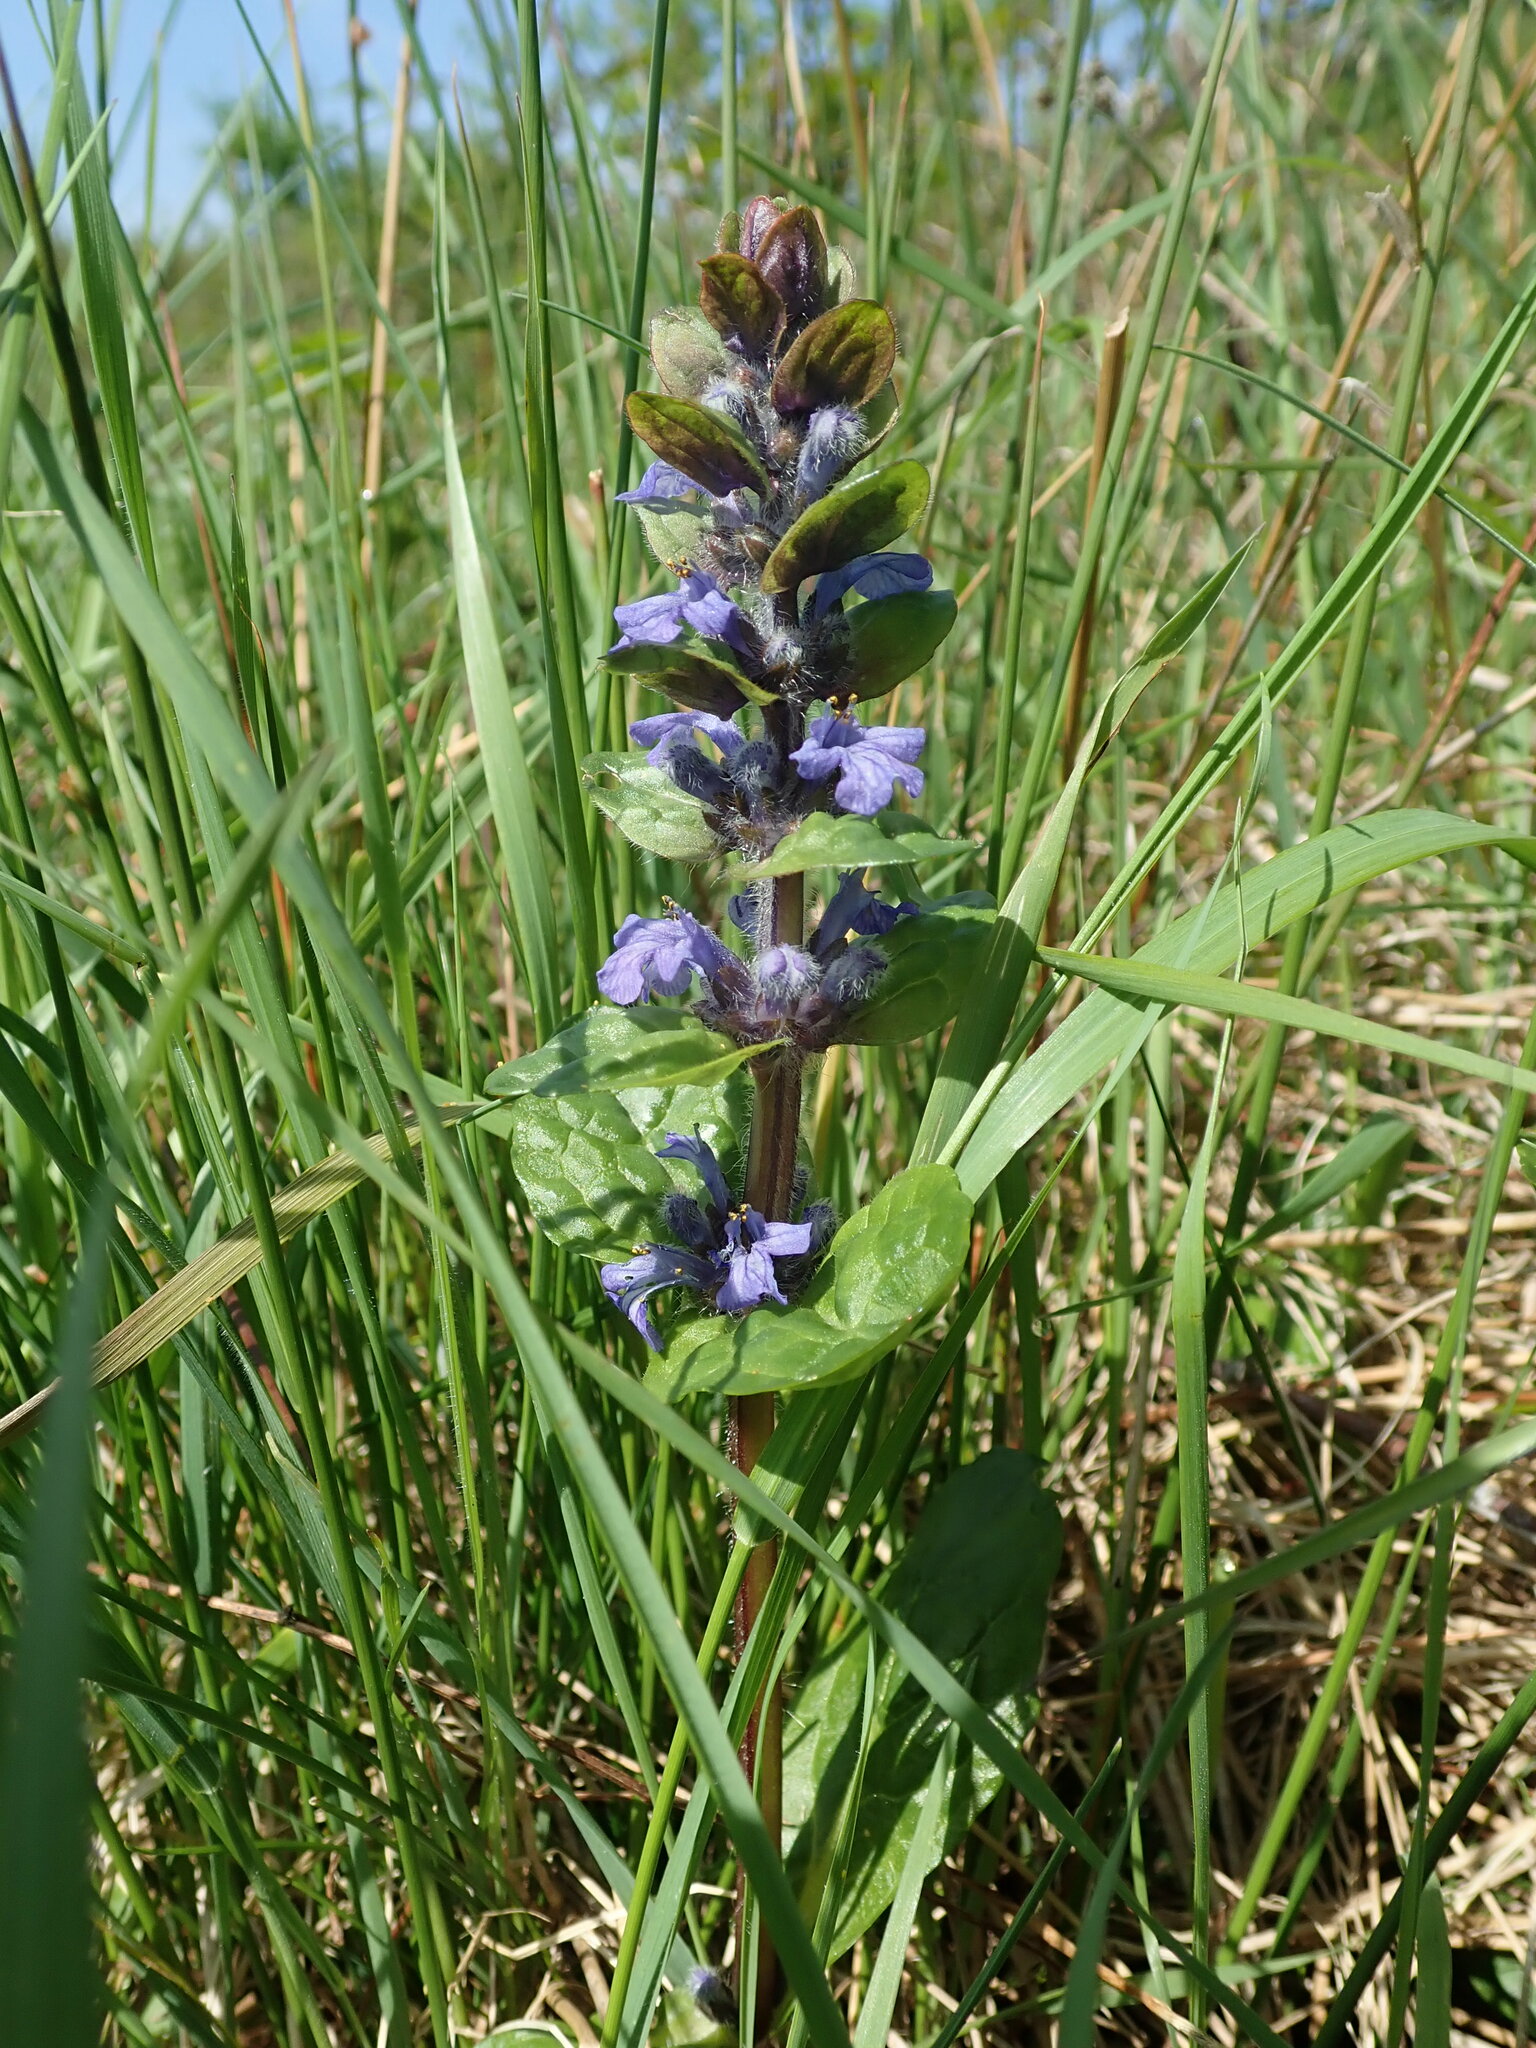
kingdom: Plantae
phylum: Tracheophyta
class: Magnoliopsida
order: Lamiales
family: Lamiaceae
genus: Ajuga
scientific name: Ajuga reptans
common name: Bugle
